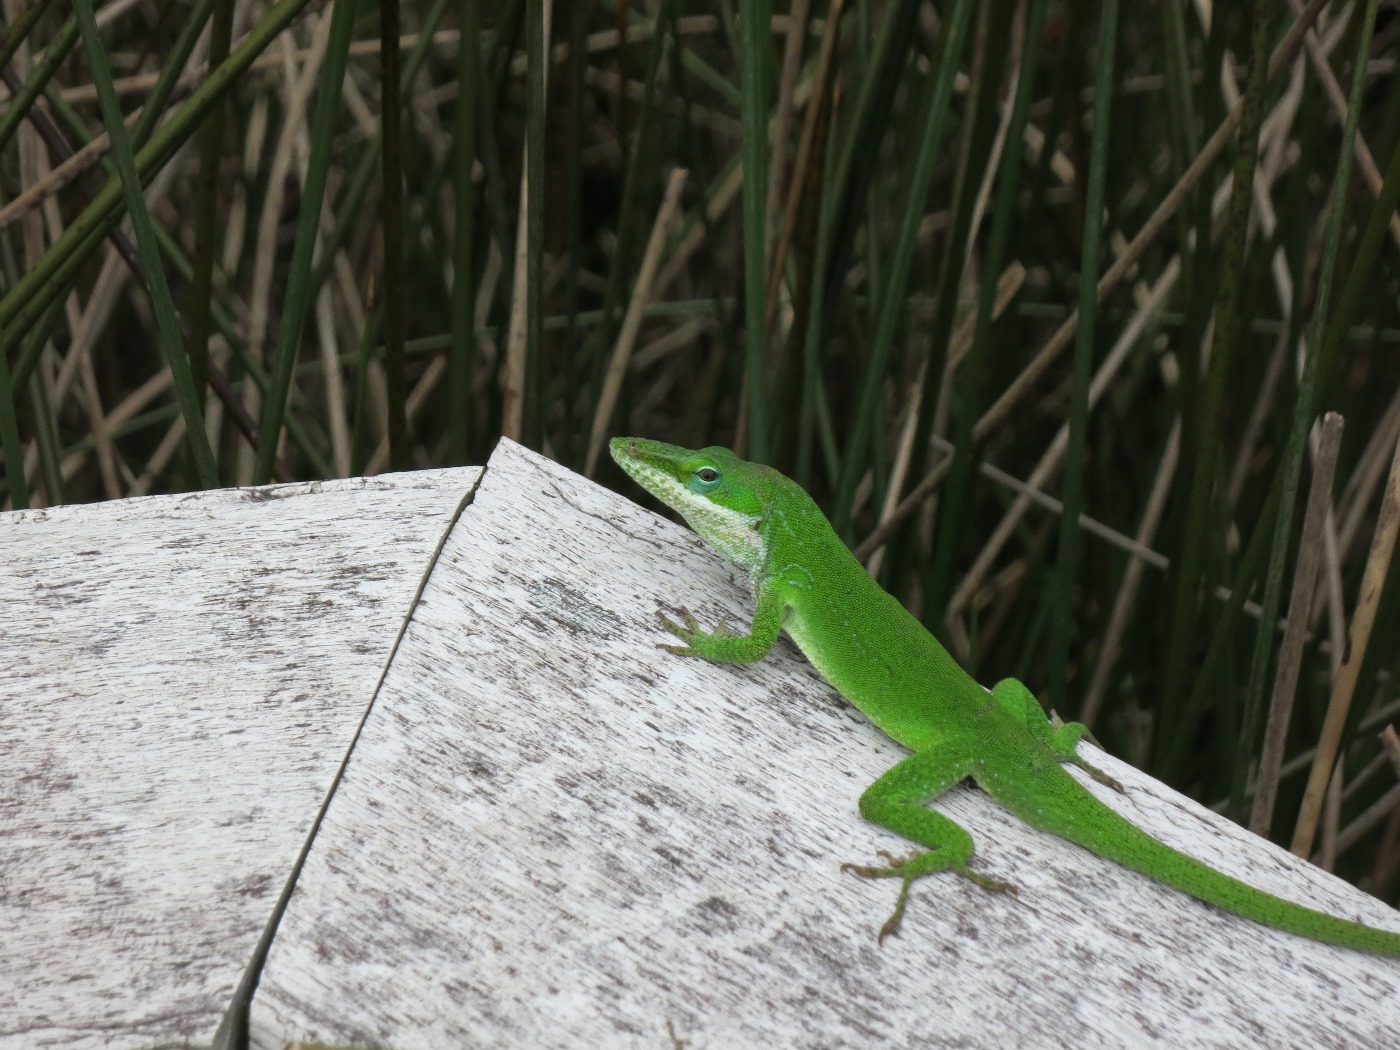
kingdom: Animalia
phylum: Chordata
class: Squamata
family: Dactyloidae
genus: Anolis
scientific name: Anolis carolinensis
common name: Green anole
